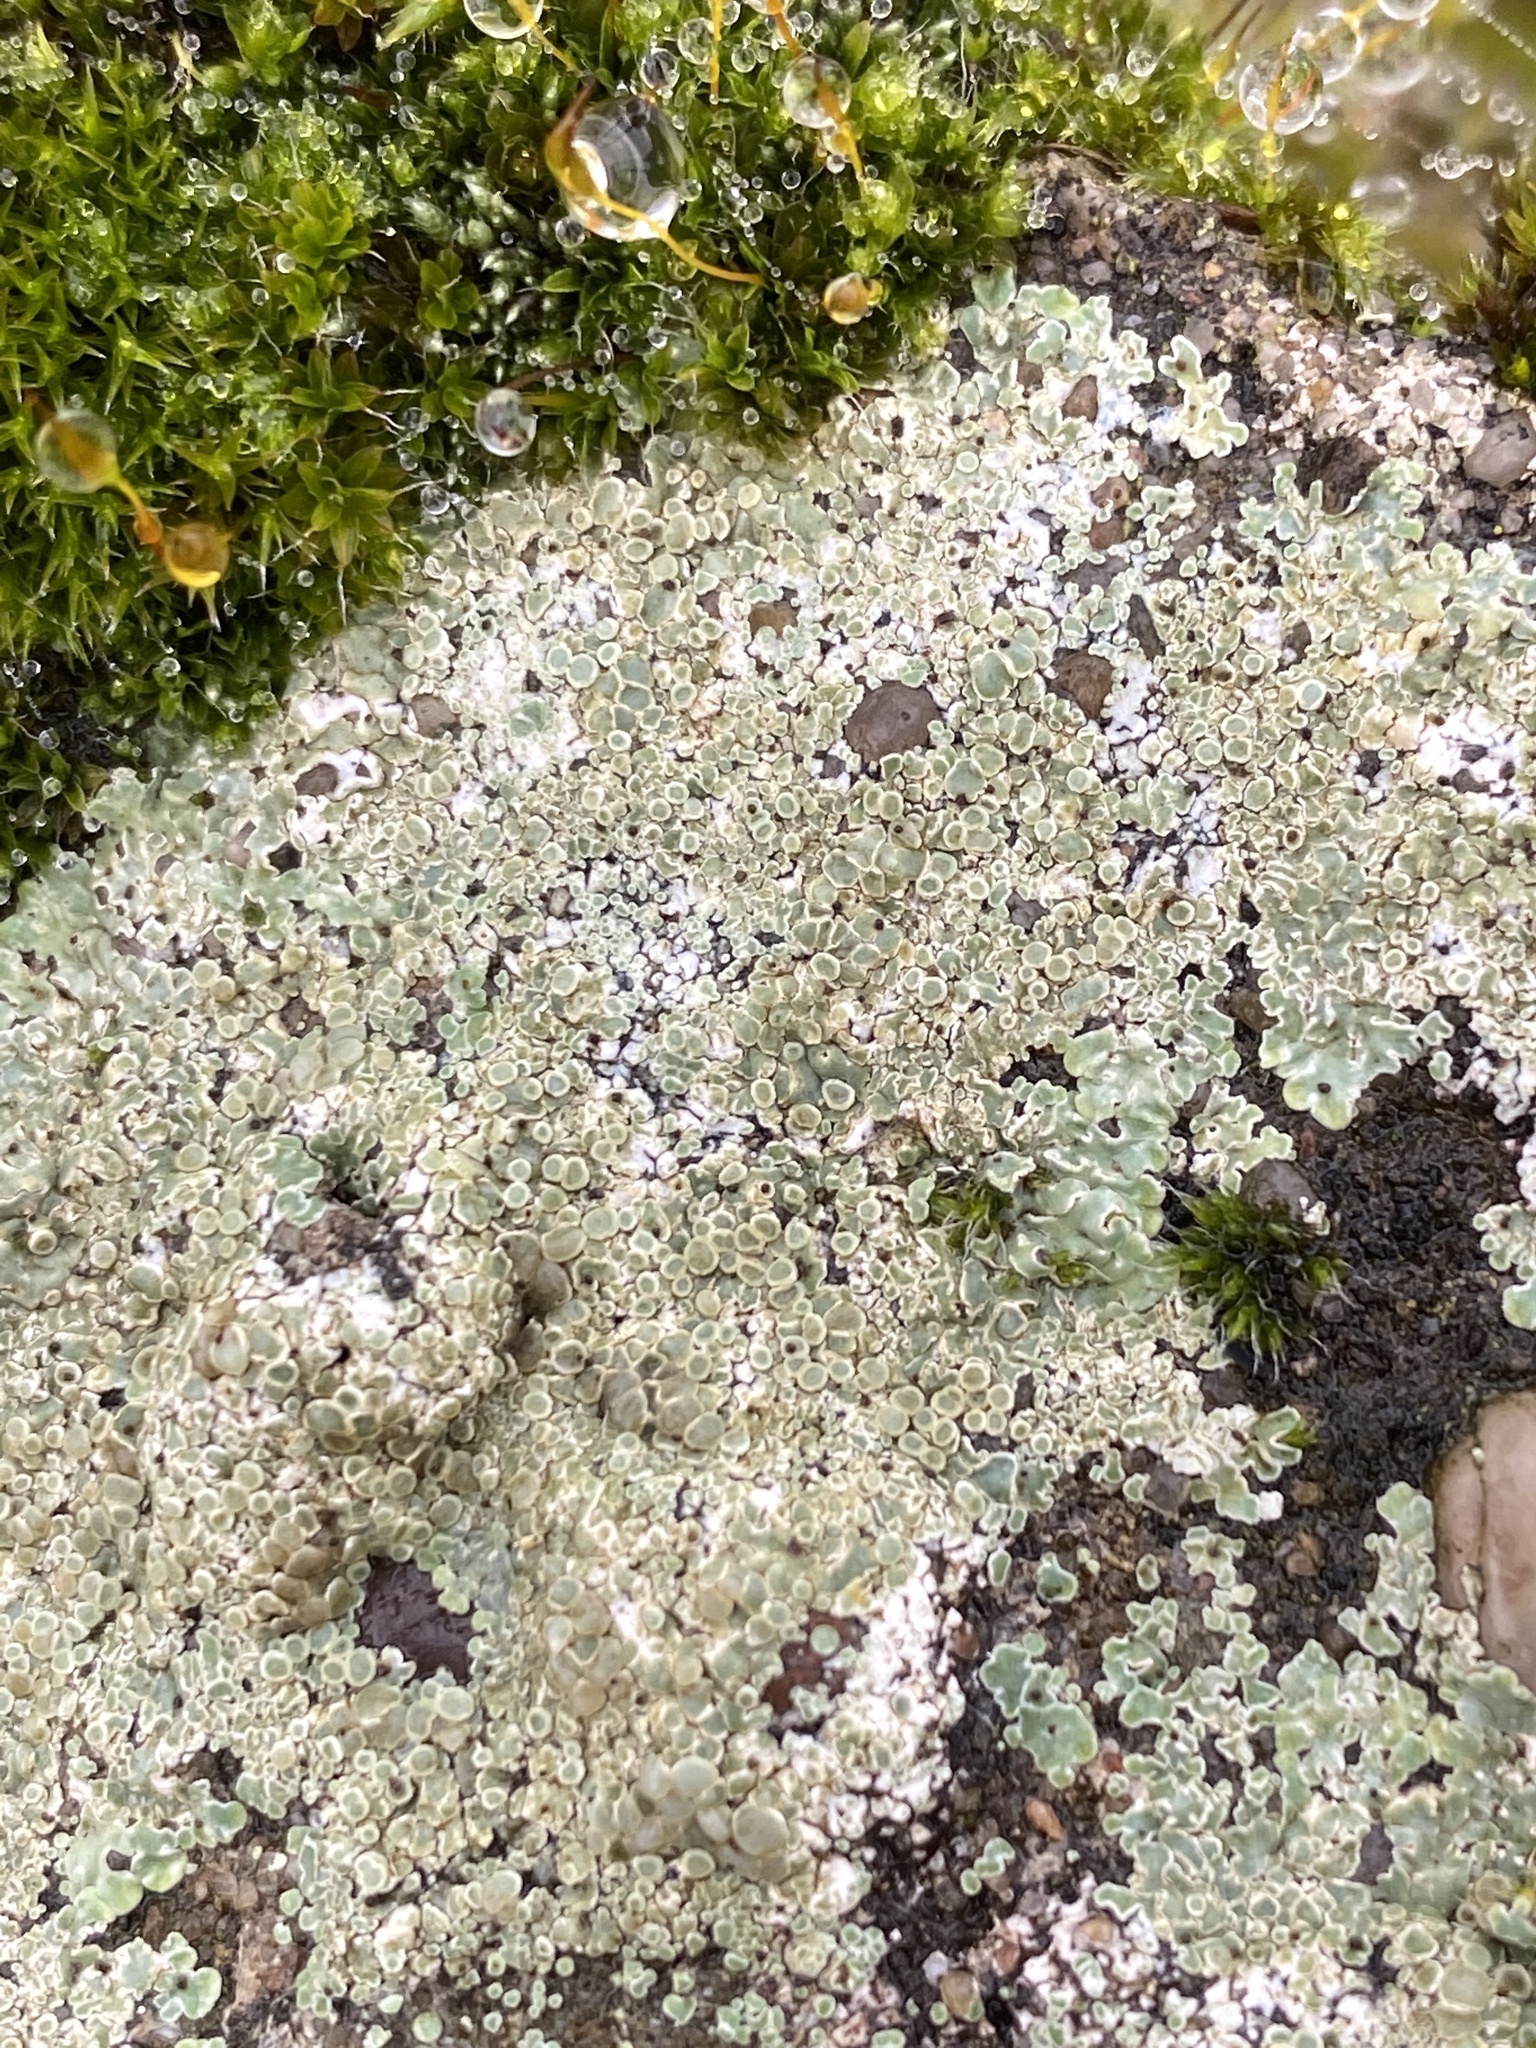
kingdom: Fungi
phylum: Ascomycota
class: Lecanoromycetes
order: Lecanorales
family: Lecanoraceae
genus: Protoparmeliopsis
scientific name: Protoparmeliopsis muralis
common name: Stonewall rim lichen
